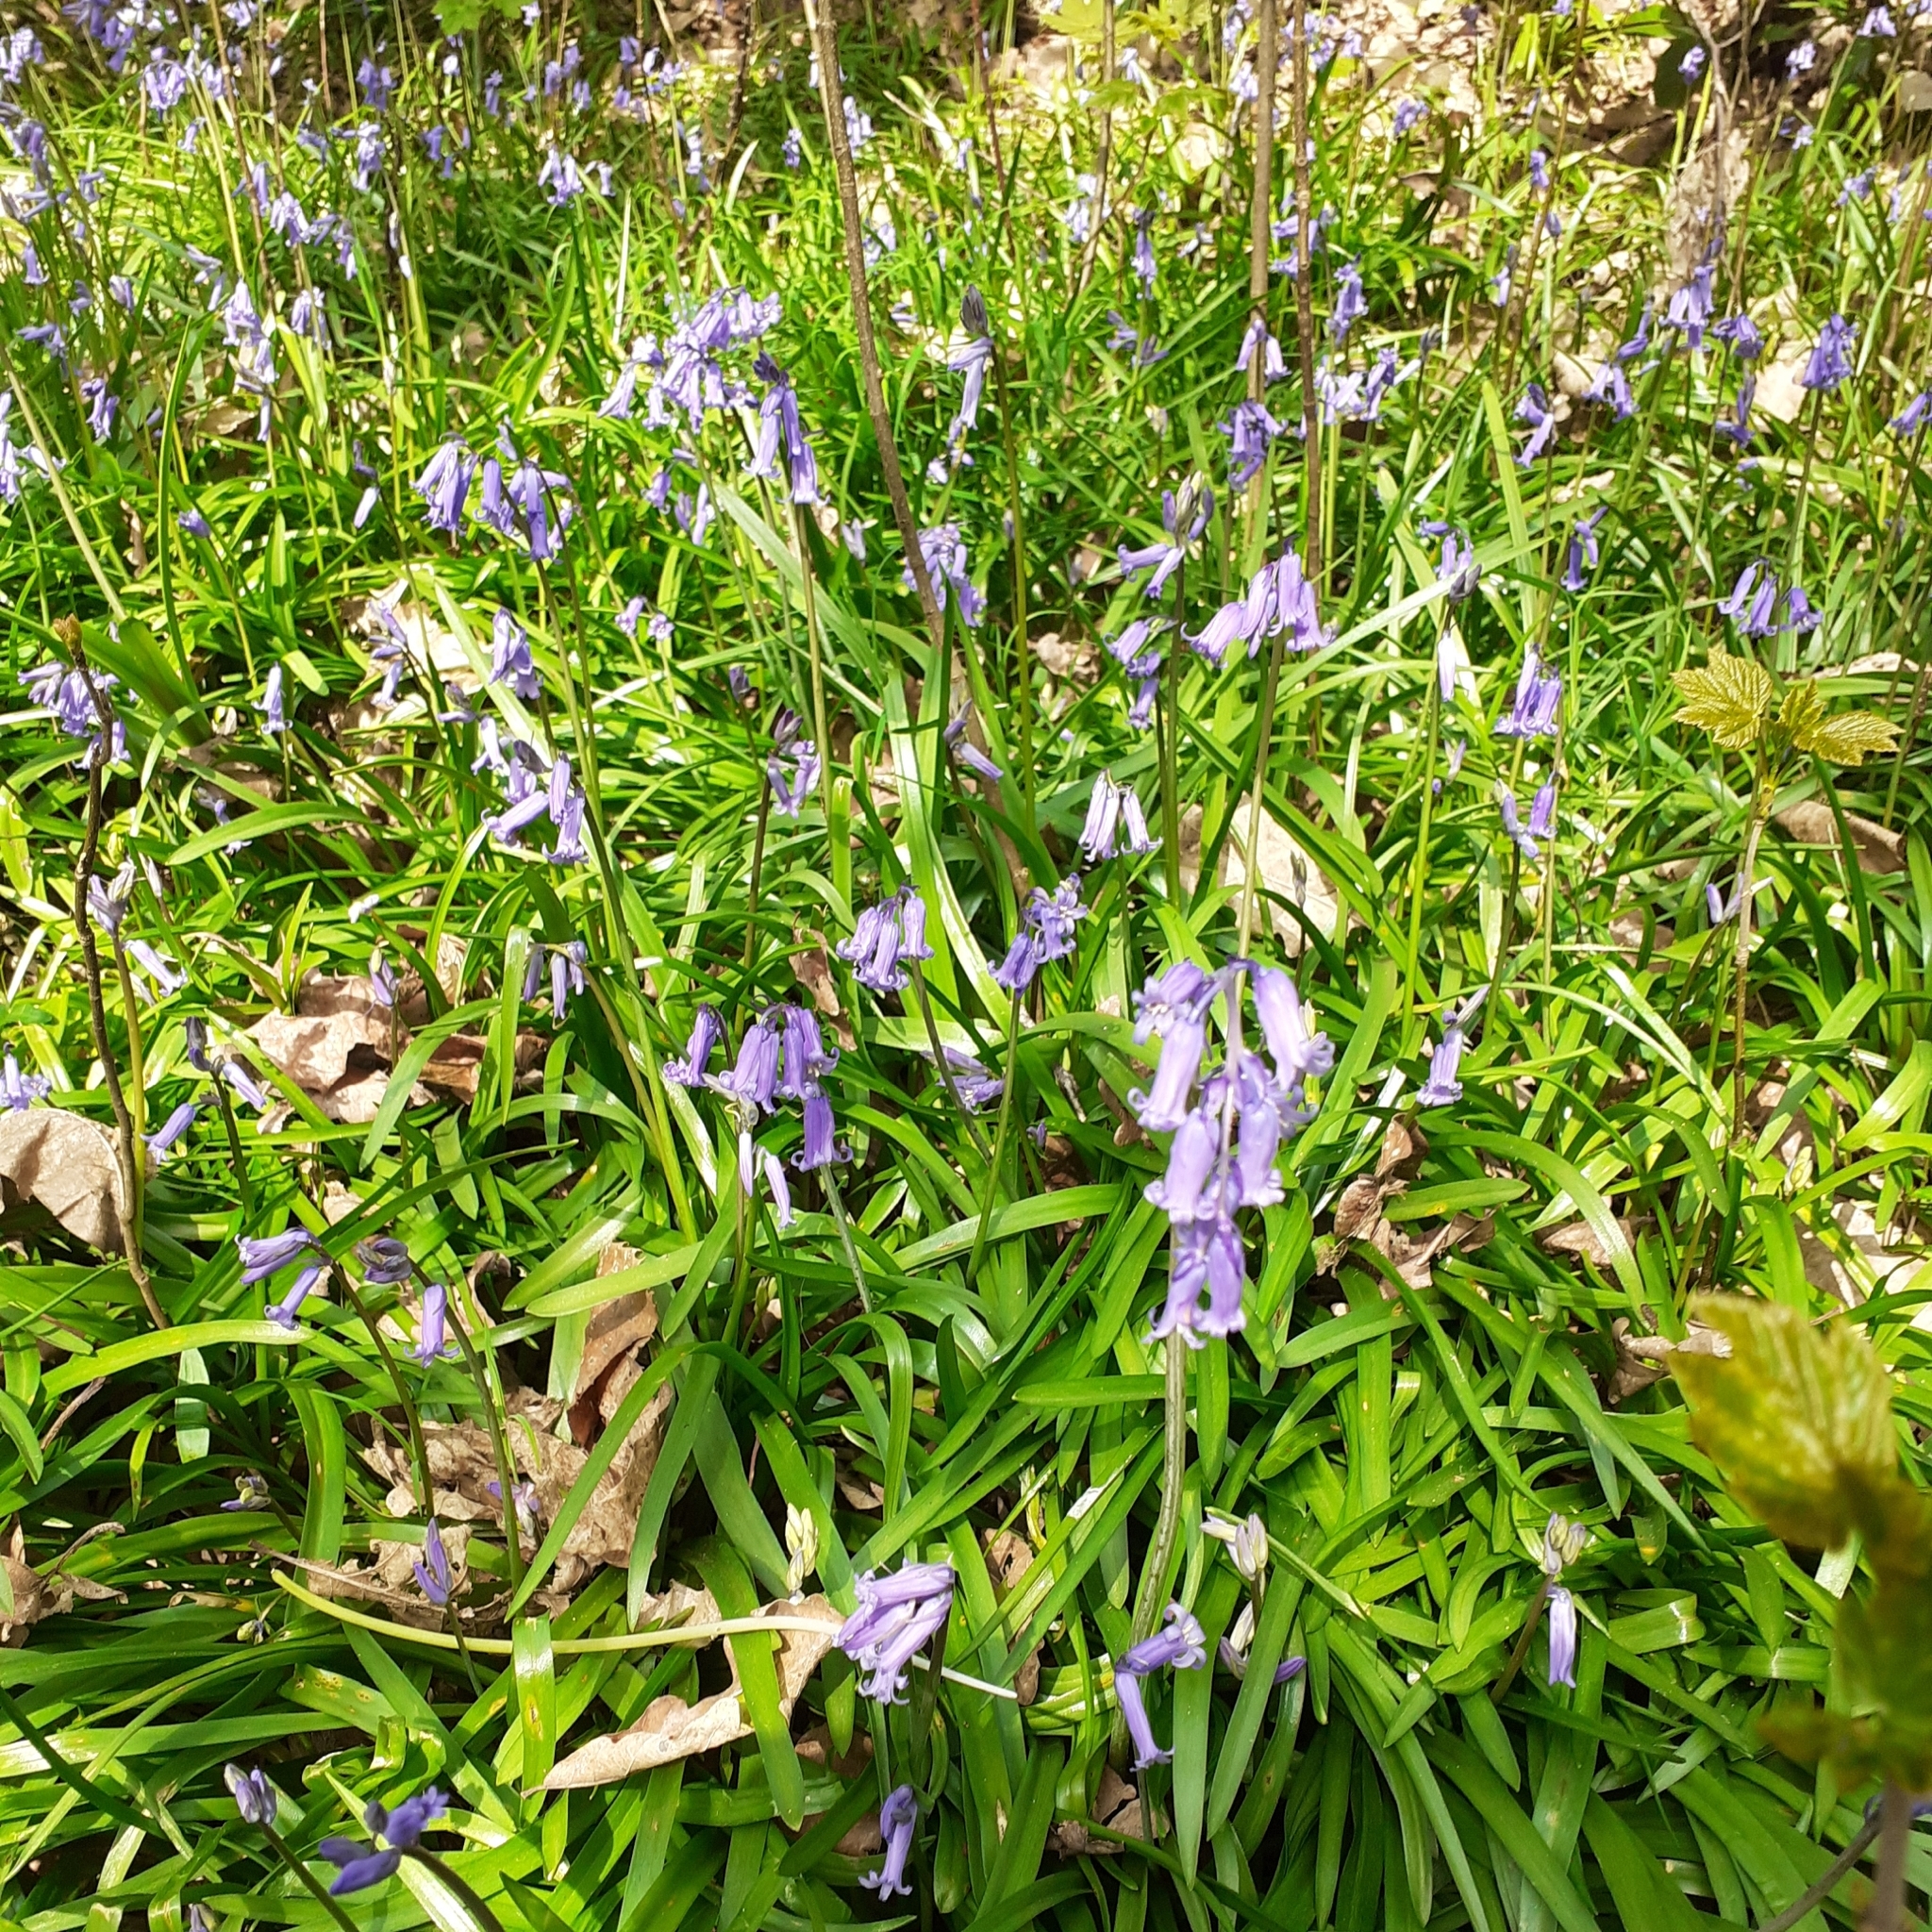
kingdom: Plantae
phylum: Tracheophyta
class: Liliopsida
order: Asparagales
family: Asparagaceae
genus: Hyacinthoides
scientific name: Hyacinthoides non-scripta
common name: Bluebell
